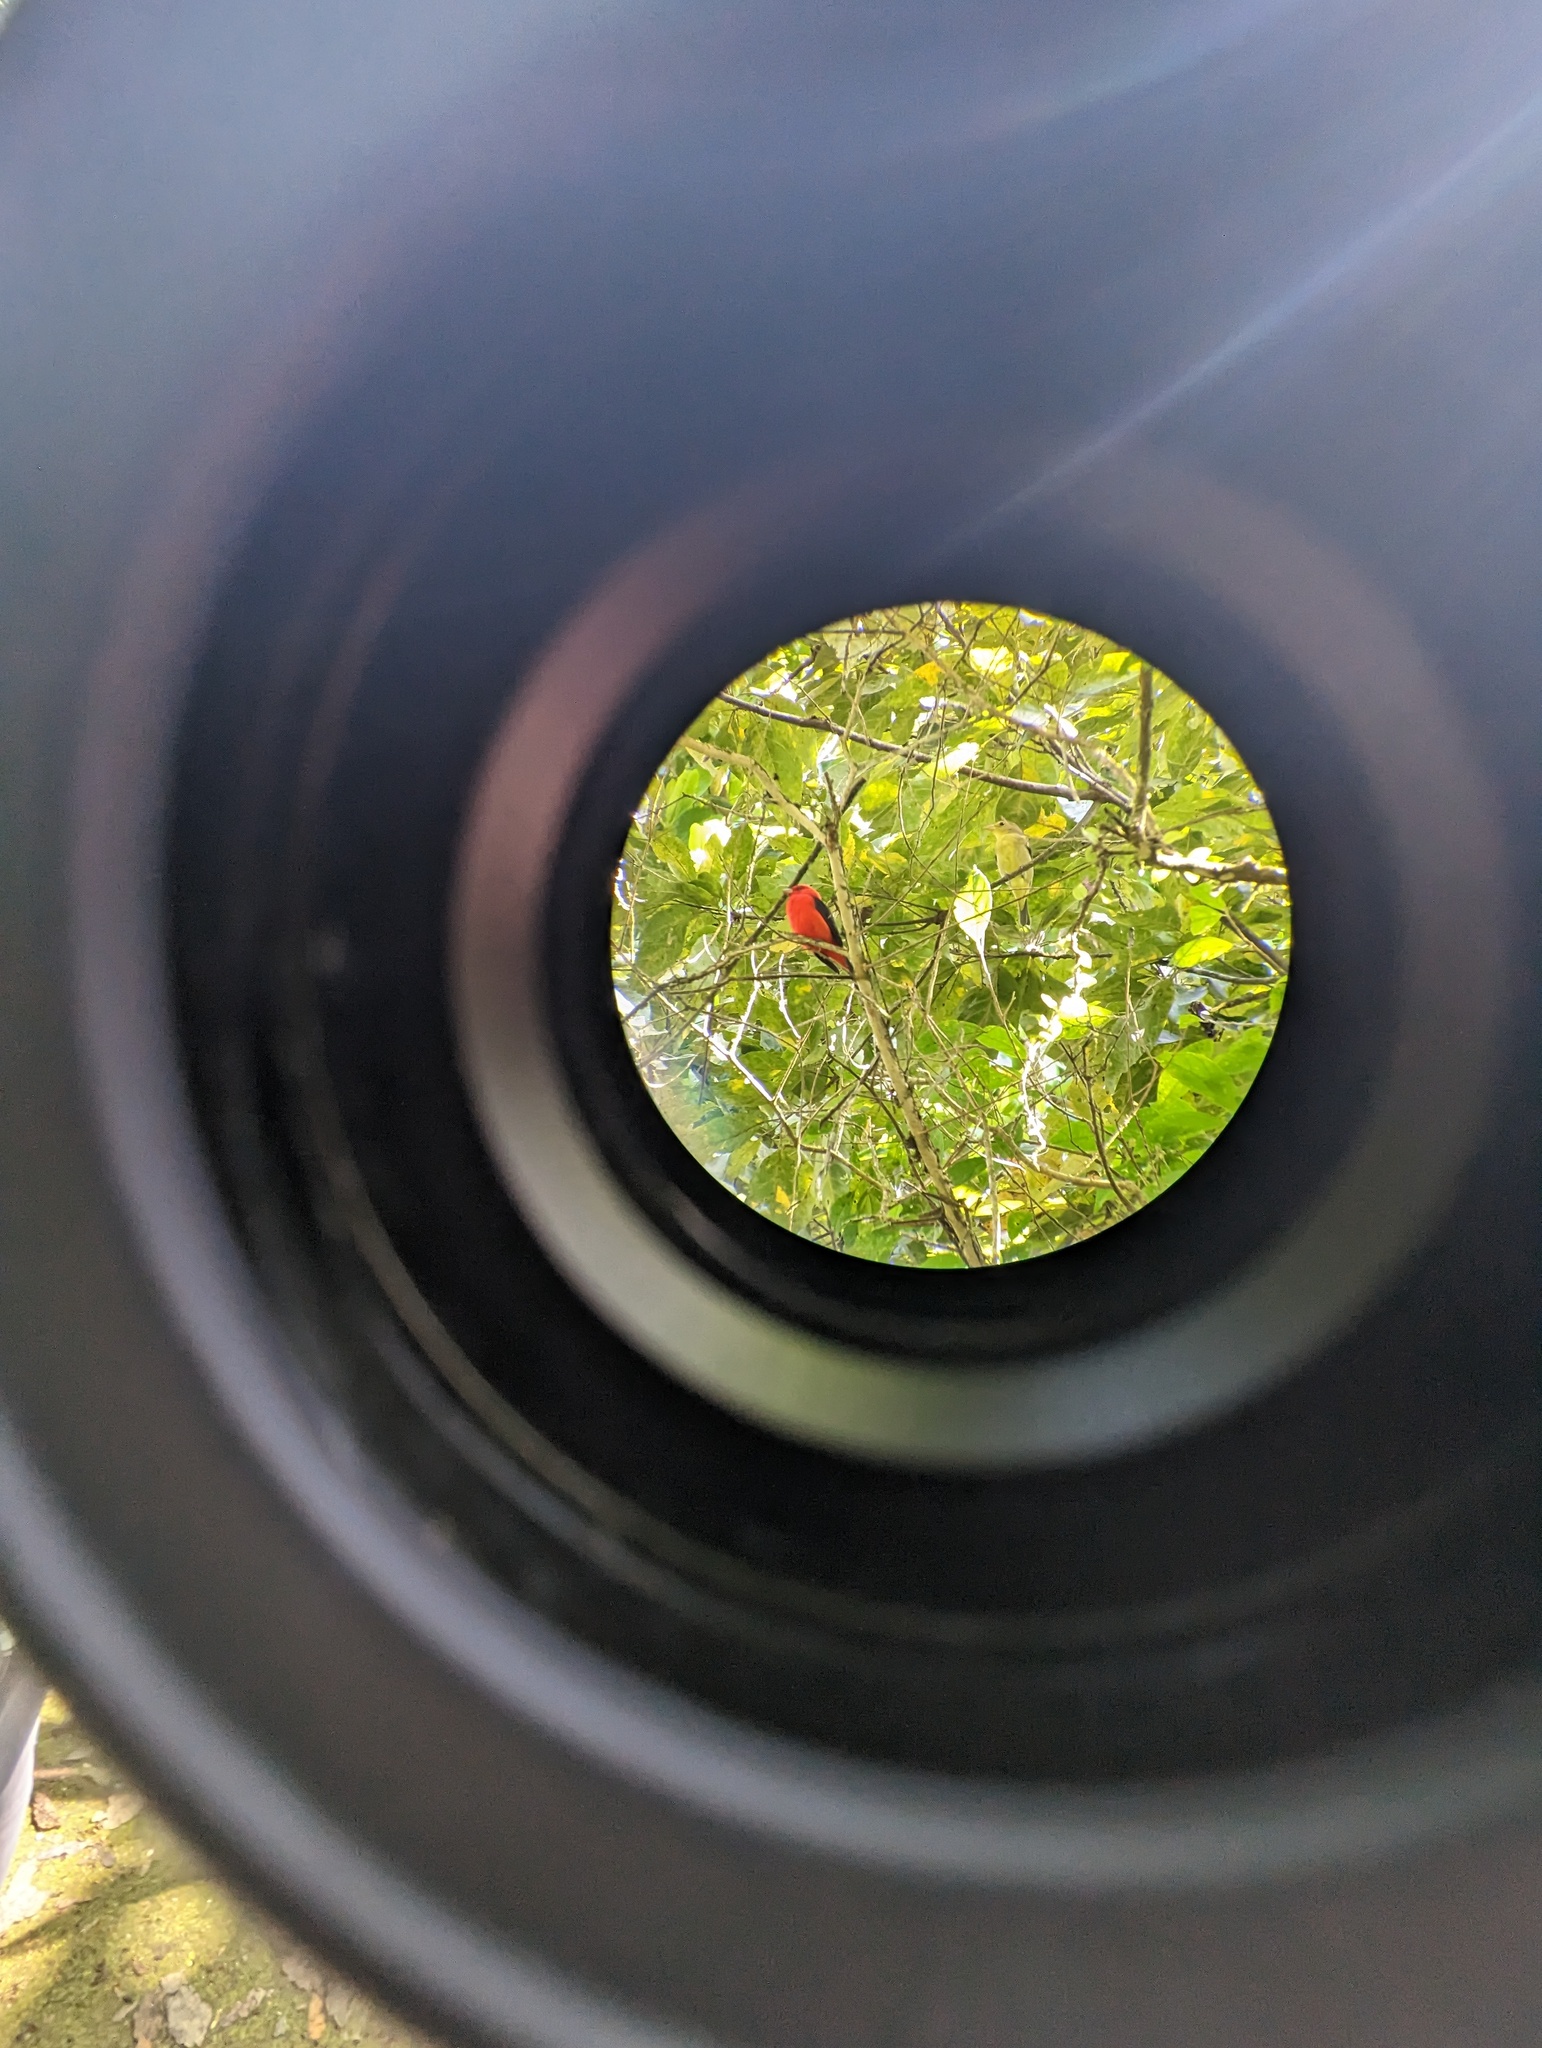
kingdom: Animalia
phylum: Chordata
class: Aves
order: Passeriformes
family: Cardinalidae
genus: Piranga
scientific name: Piranga olivacea
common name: Scarlet tanager
